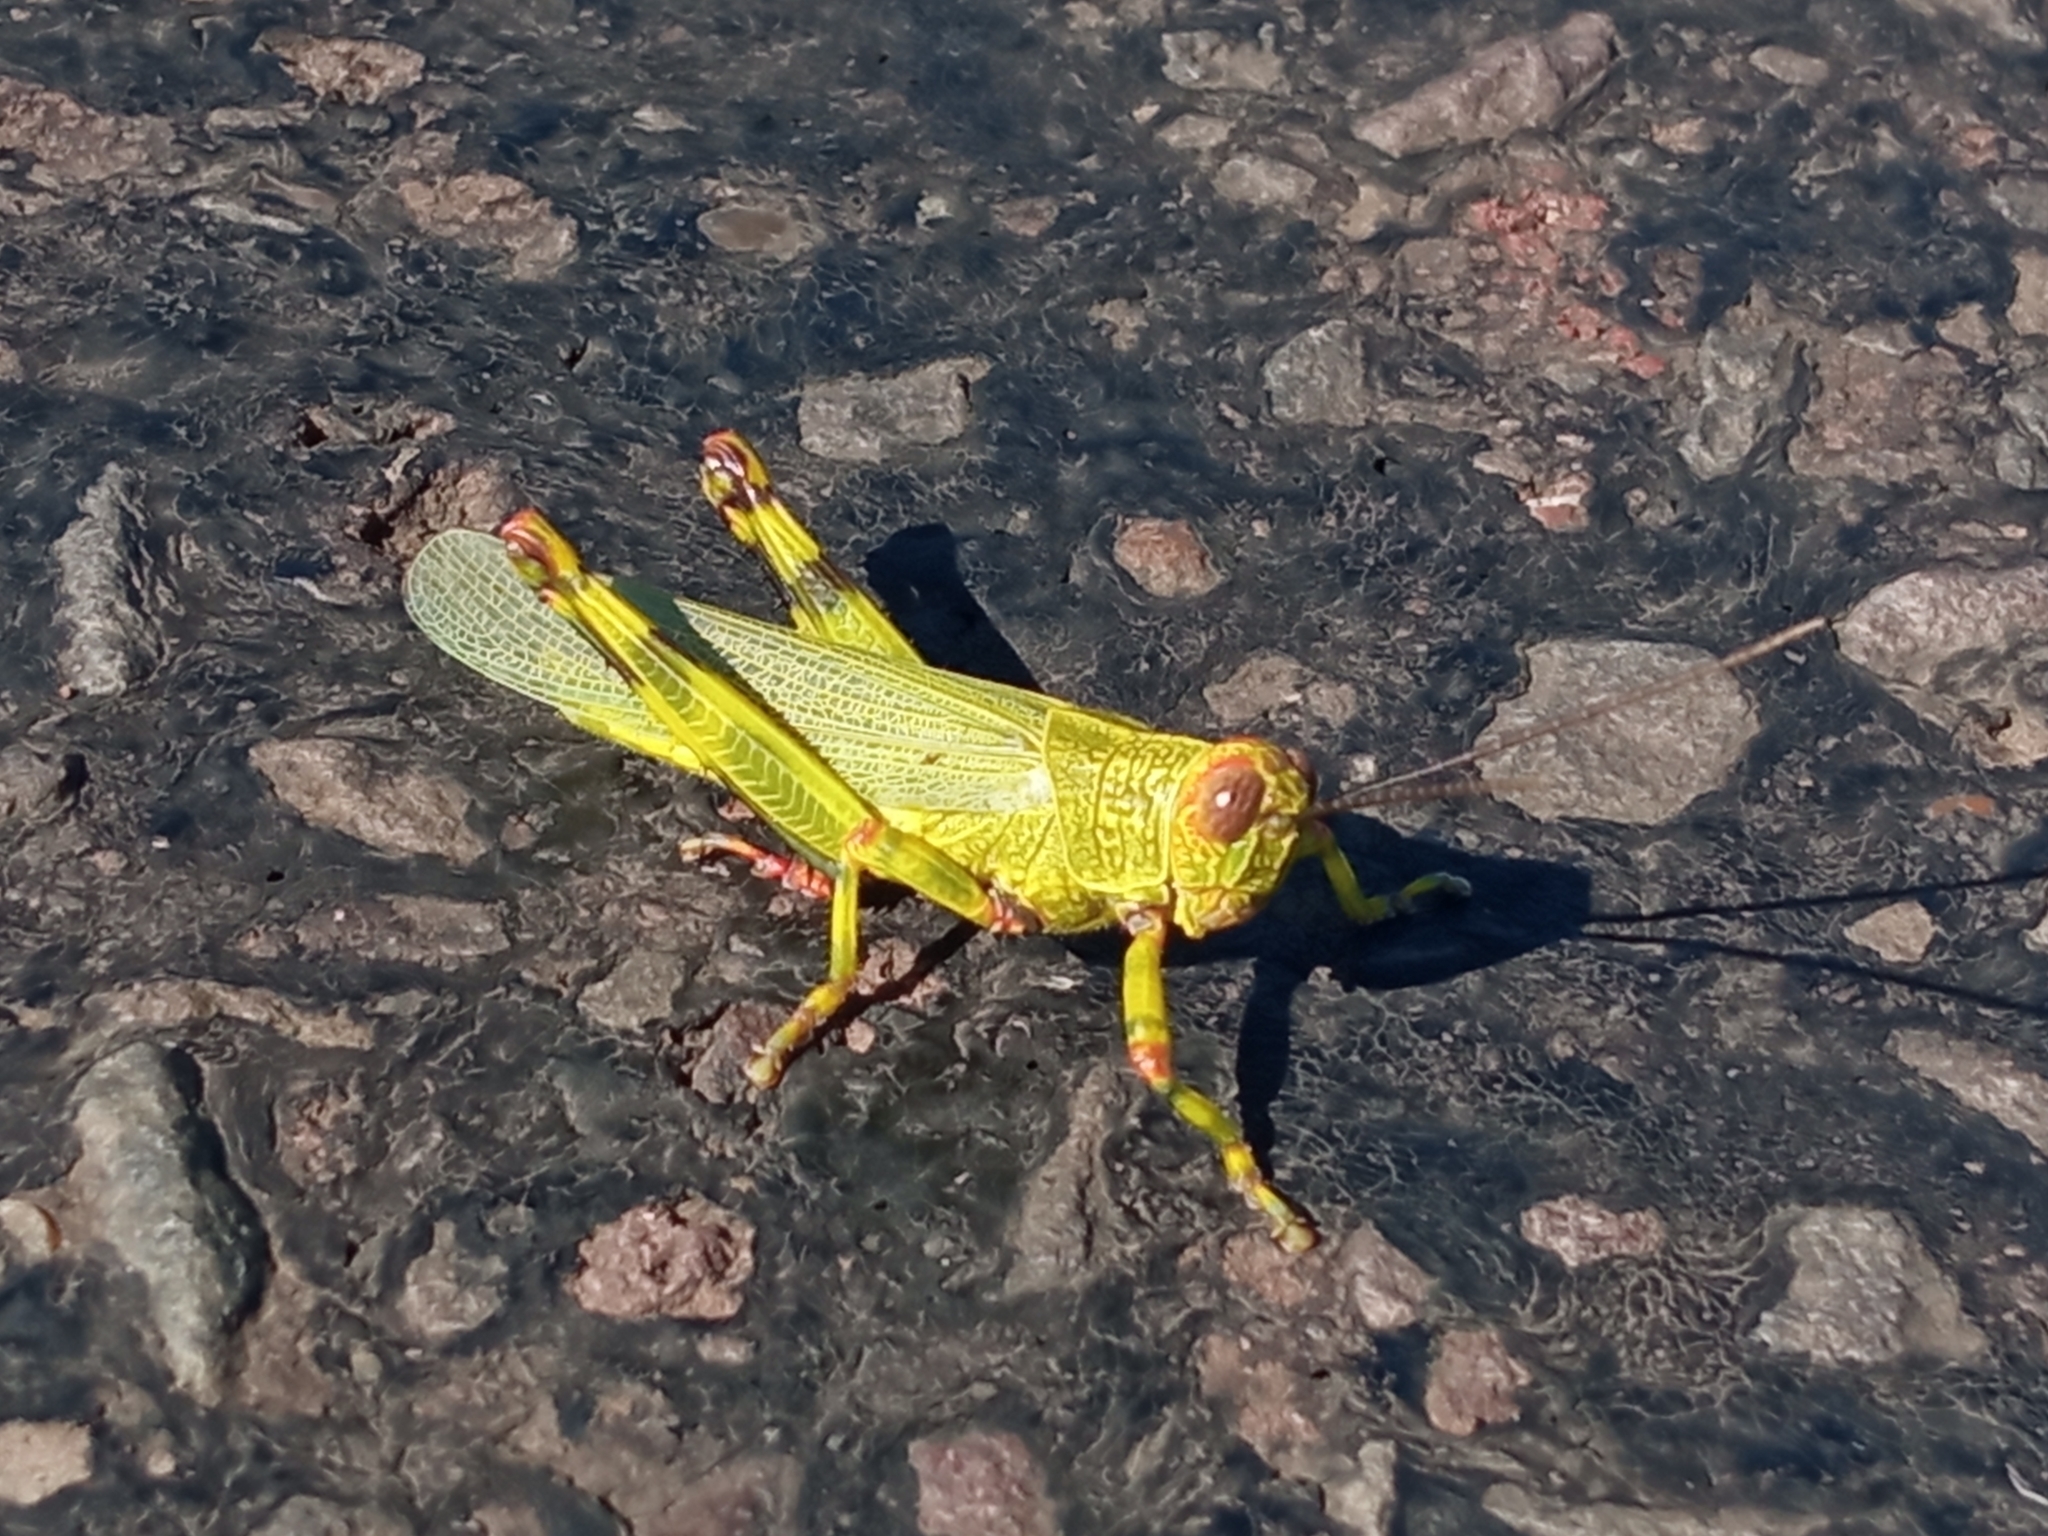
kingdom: Animalia
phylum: Arthropoda
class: Insecta
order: Orthoptera
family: Romaleidae
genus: Zoniopoda
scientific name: Zoniopoda tarsata
